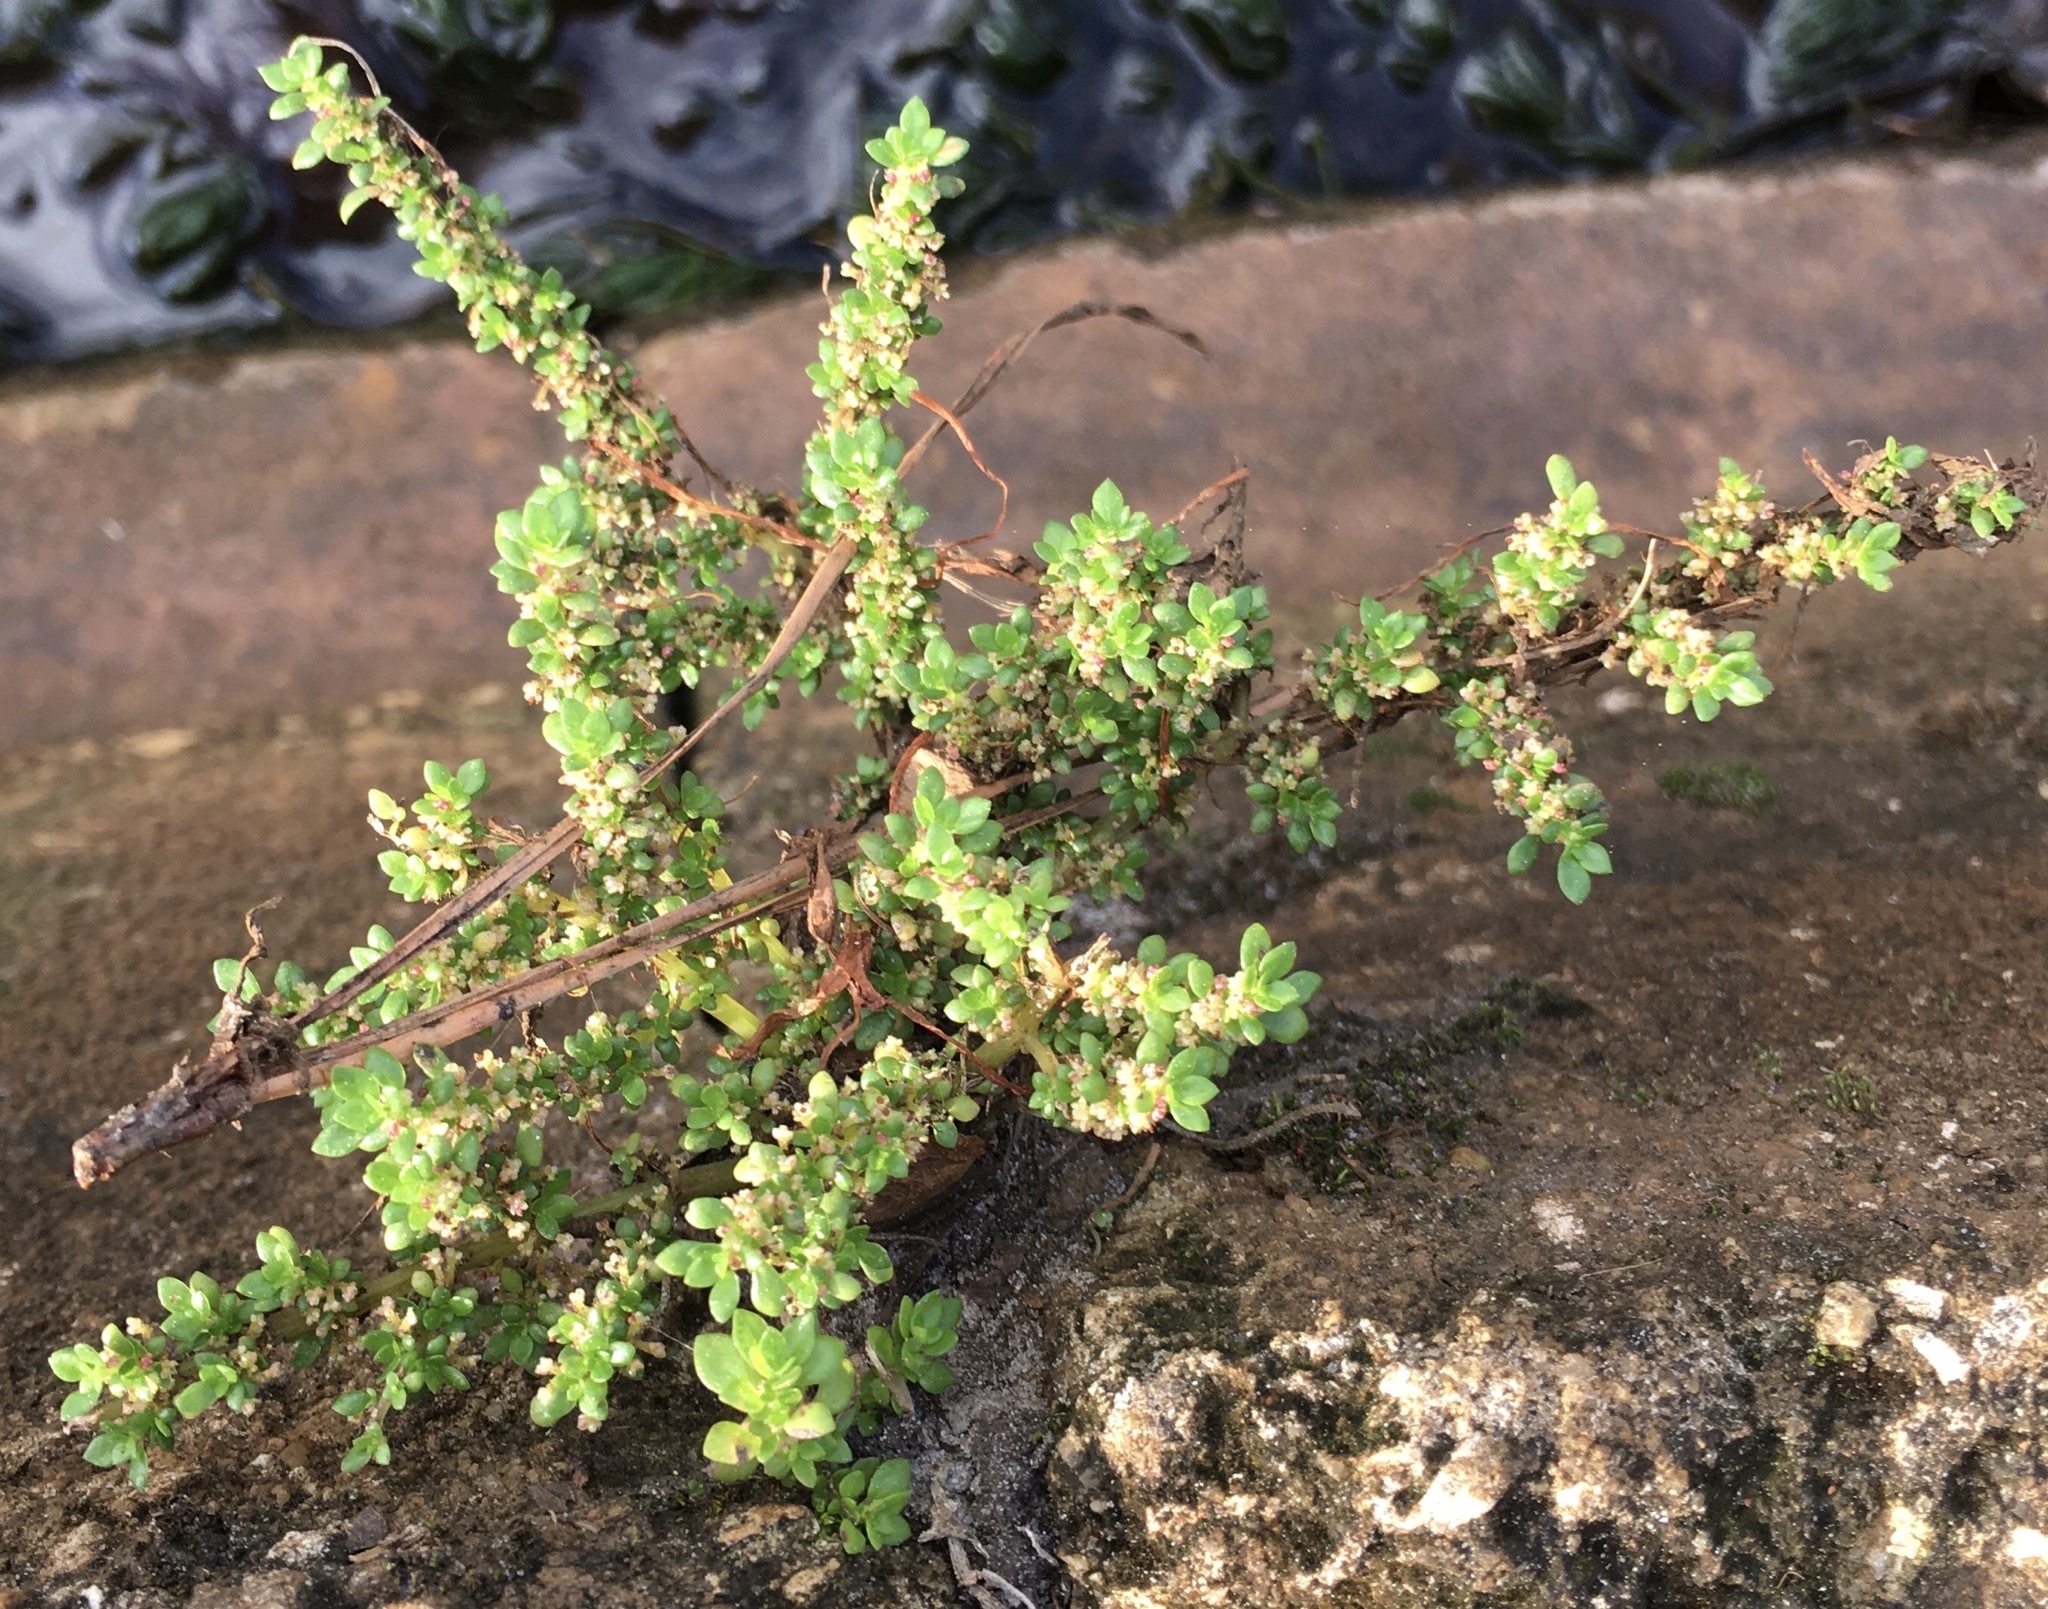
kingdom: Plantae
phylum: Tracheophyta
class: Magnoliopsida
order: Rosales
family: Urticaceae
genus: Pilea
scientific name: Pilea microphylla
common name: Artillery-plant
